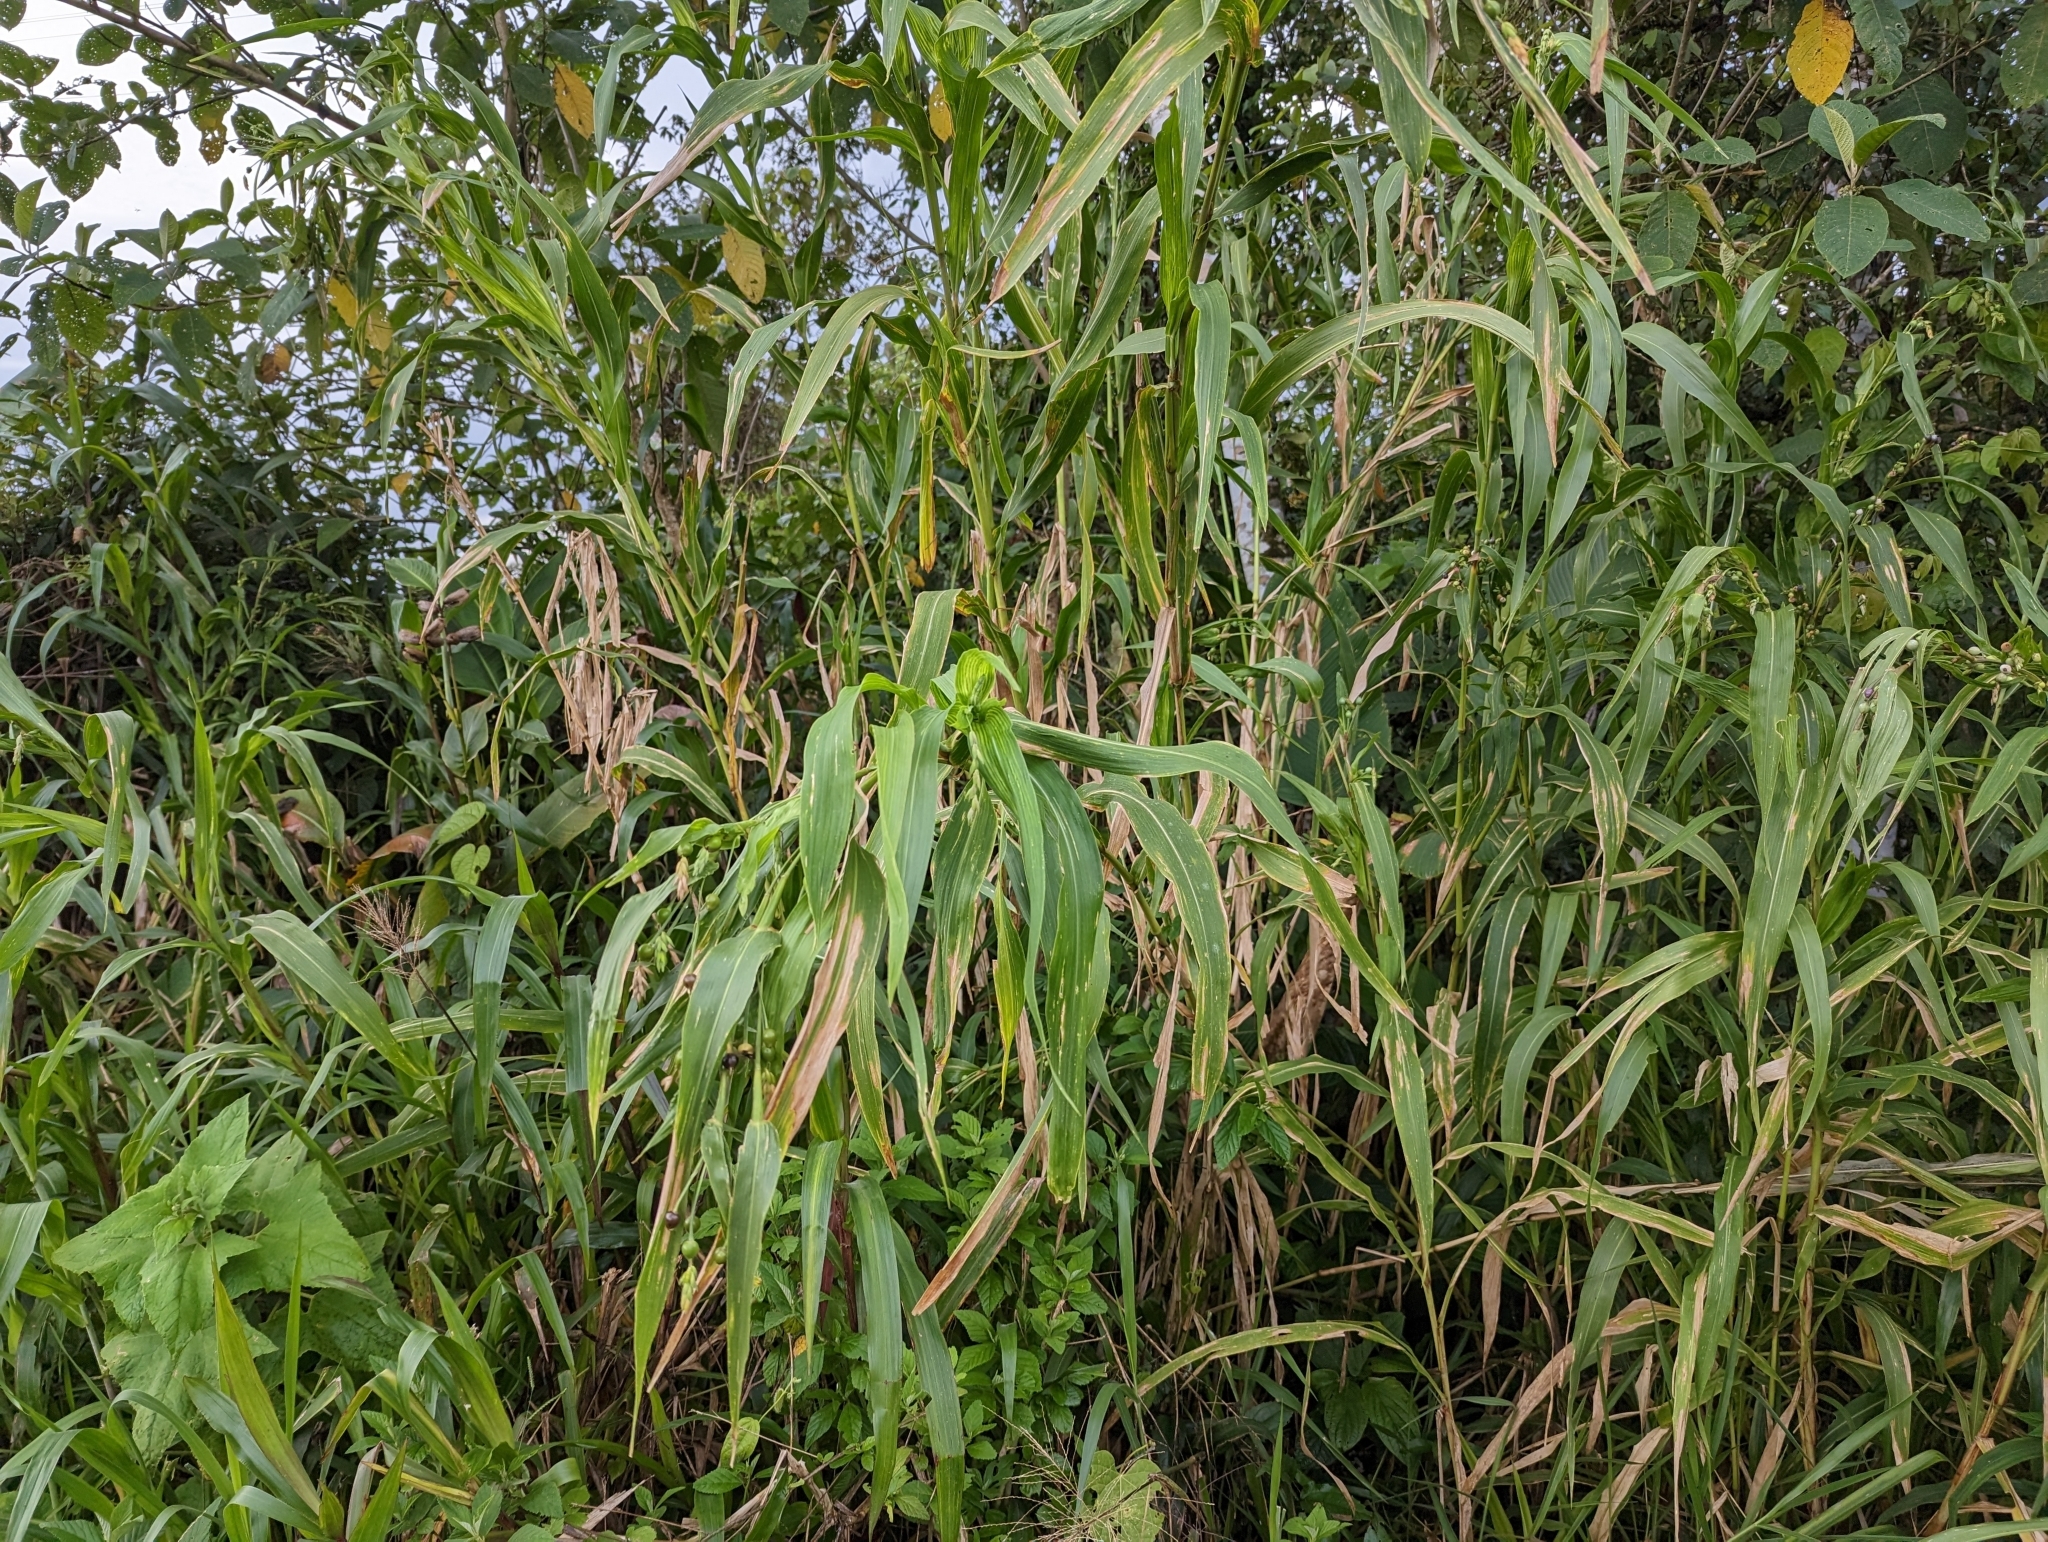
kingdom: Plantae
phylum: Tracheophyta
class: Liliopsida
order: Poales
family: Poaceae
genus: Coix
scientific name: Coix lacryma-jobi
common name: Job's tears
